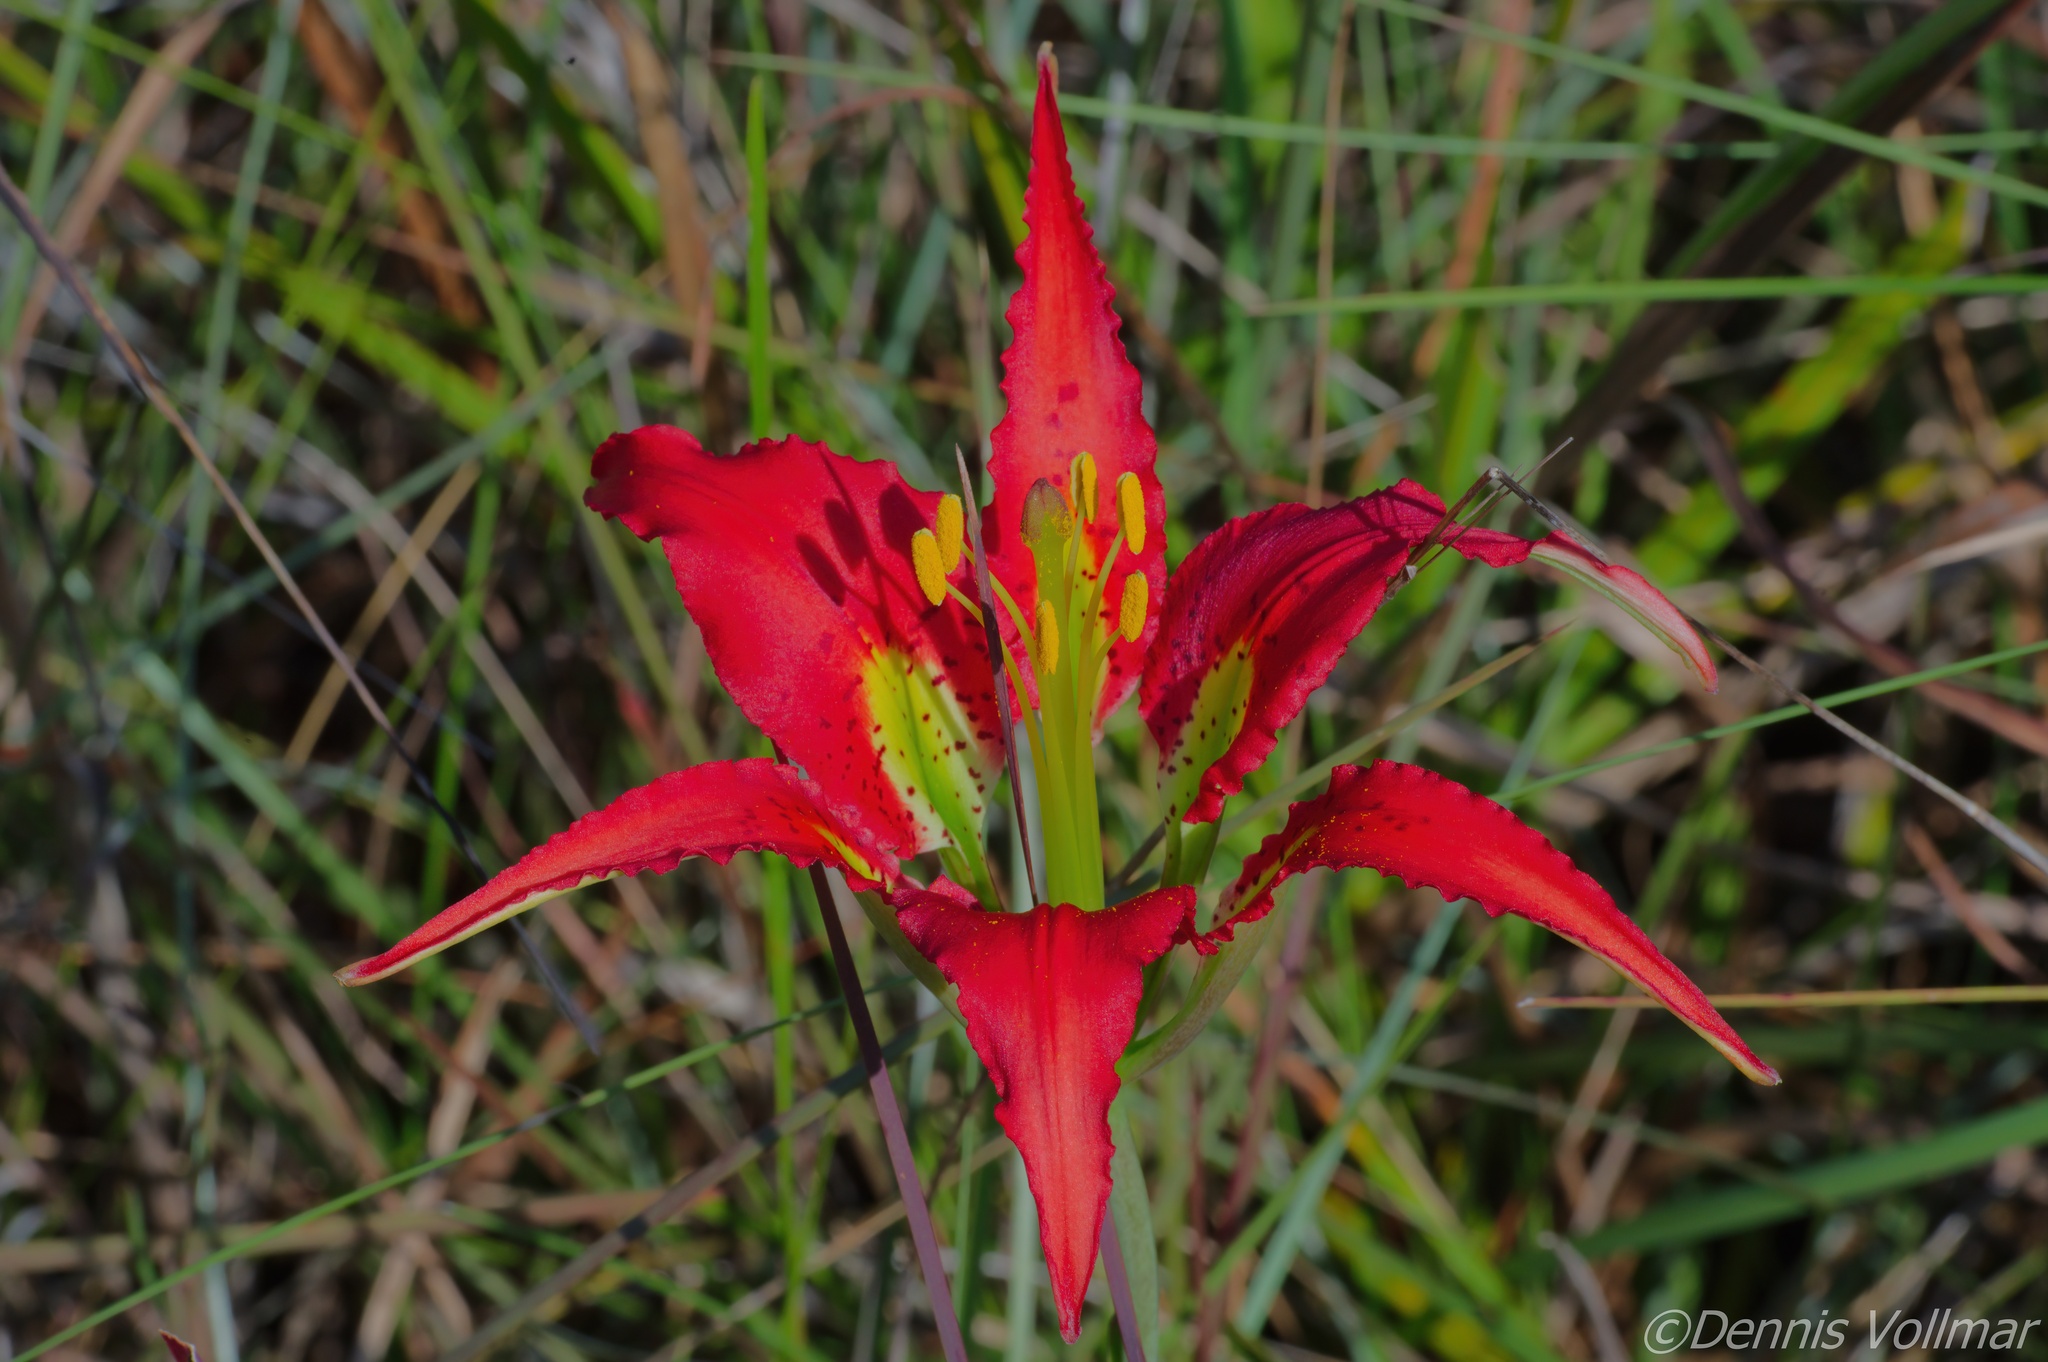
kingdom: Plantae
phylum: Tracheophyta
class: Liliopsida
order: Liliales
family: Liliaceae
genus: Lilium
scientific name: Lilium catesbaei
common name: Catesby's lily
